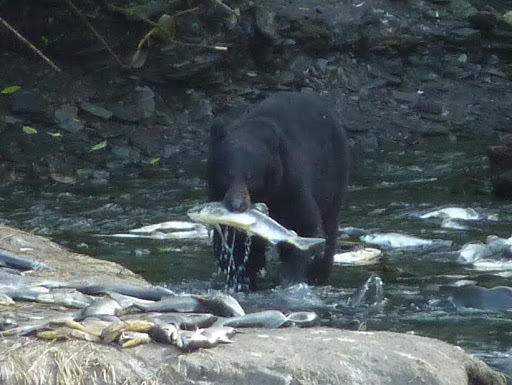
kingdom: Animalia
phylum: Chordata
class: Mammalia
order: Carnivora
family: Ursidae
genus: Ursus
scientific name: Ursus americanus
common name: American black bear
